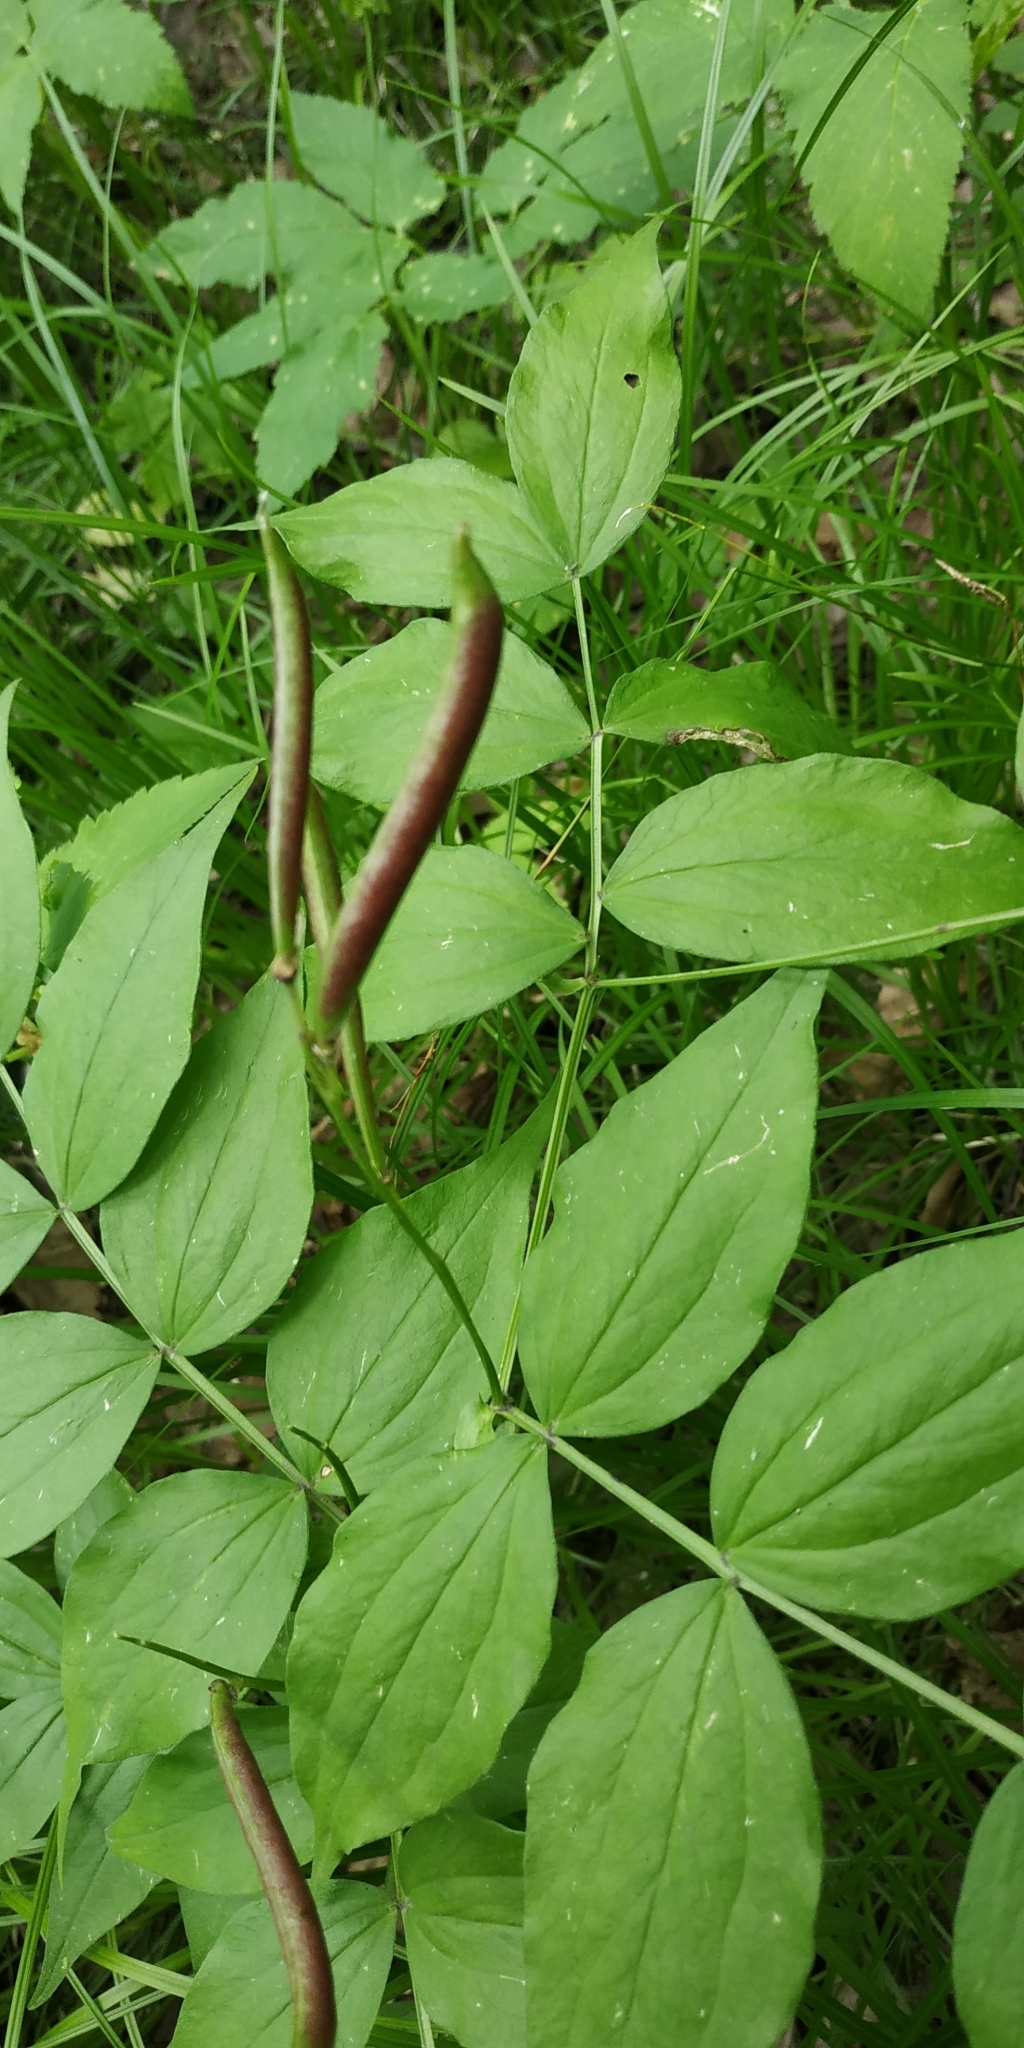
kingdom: Plantae
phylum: Tracheophyta
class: Magnoliopsida
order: Fabales
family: Fabaceae
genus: Lathyrus
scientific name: Lathyrus vernus
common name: Spring pea
